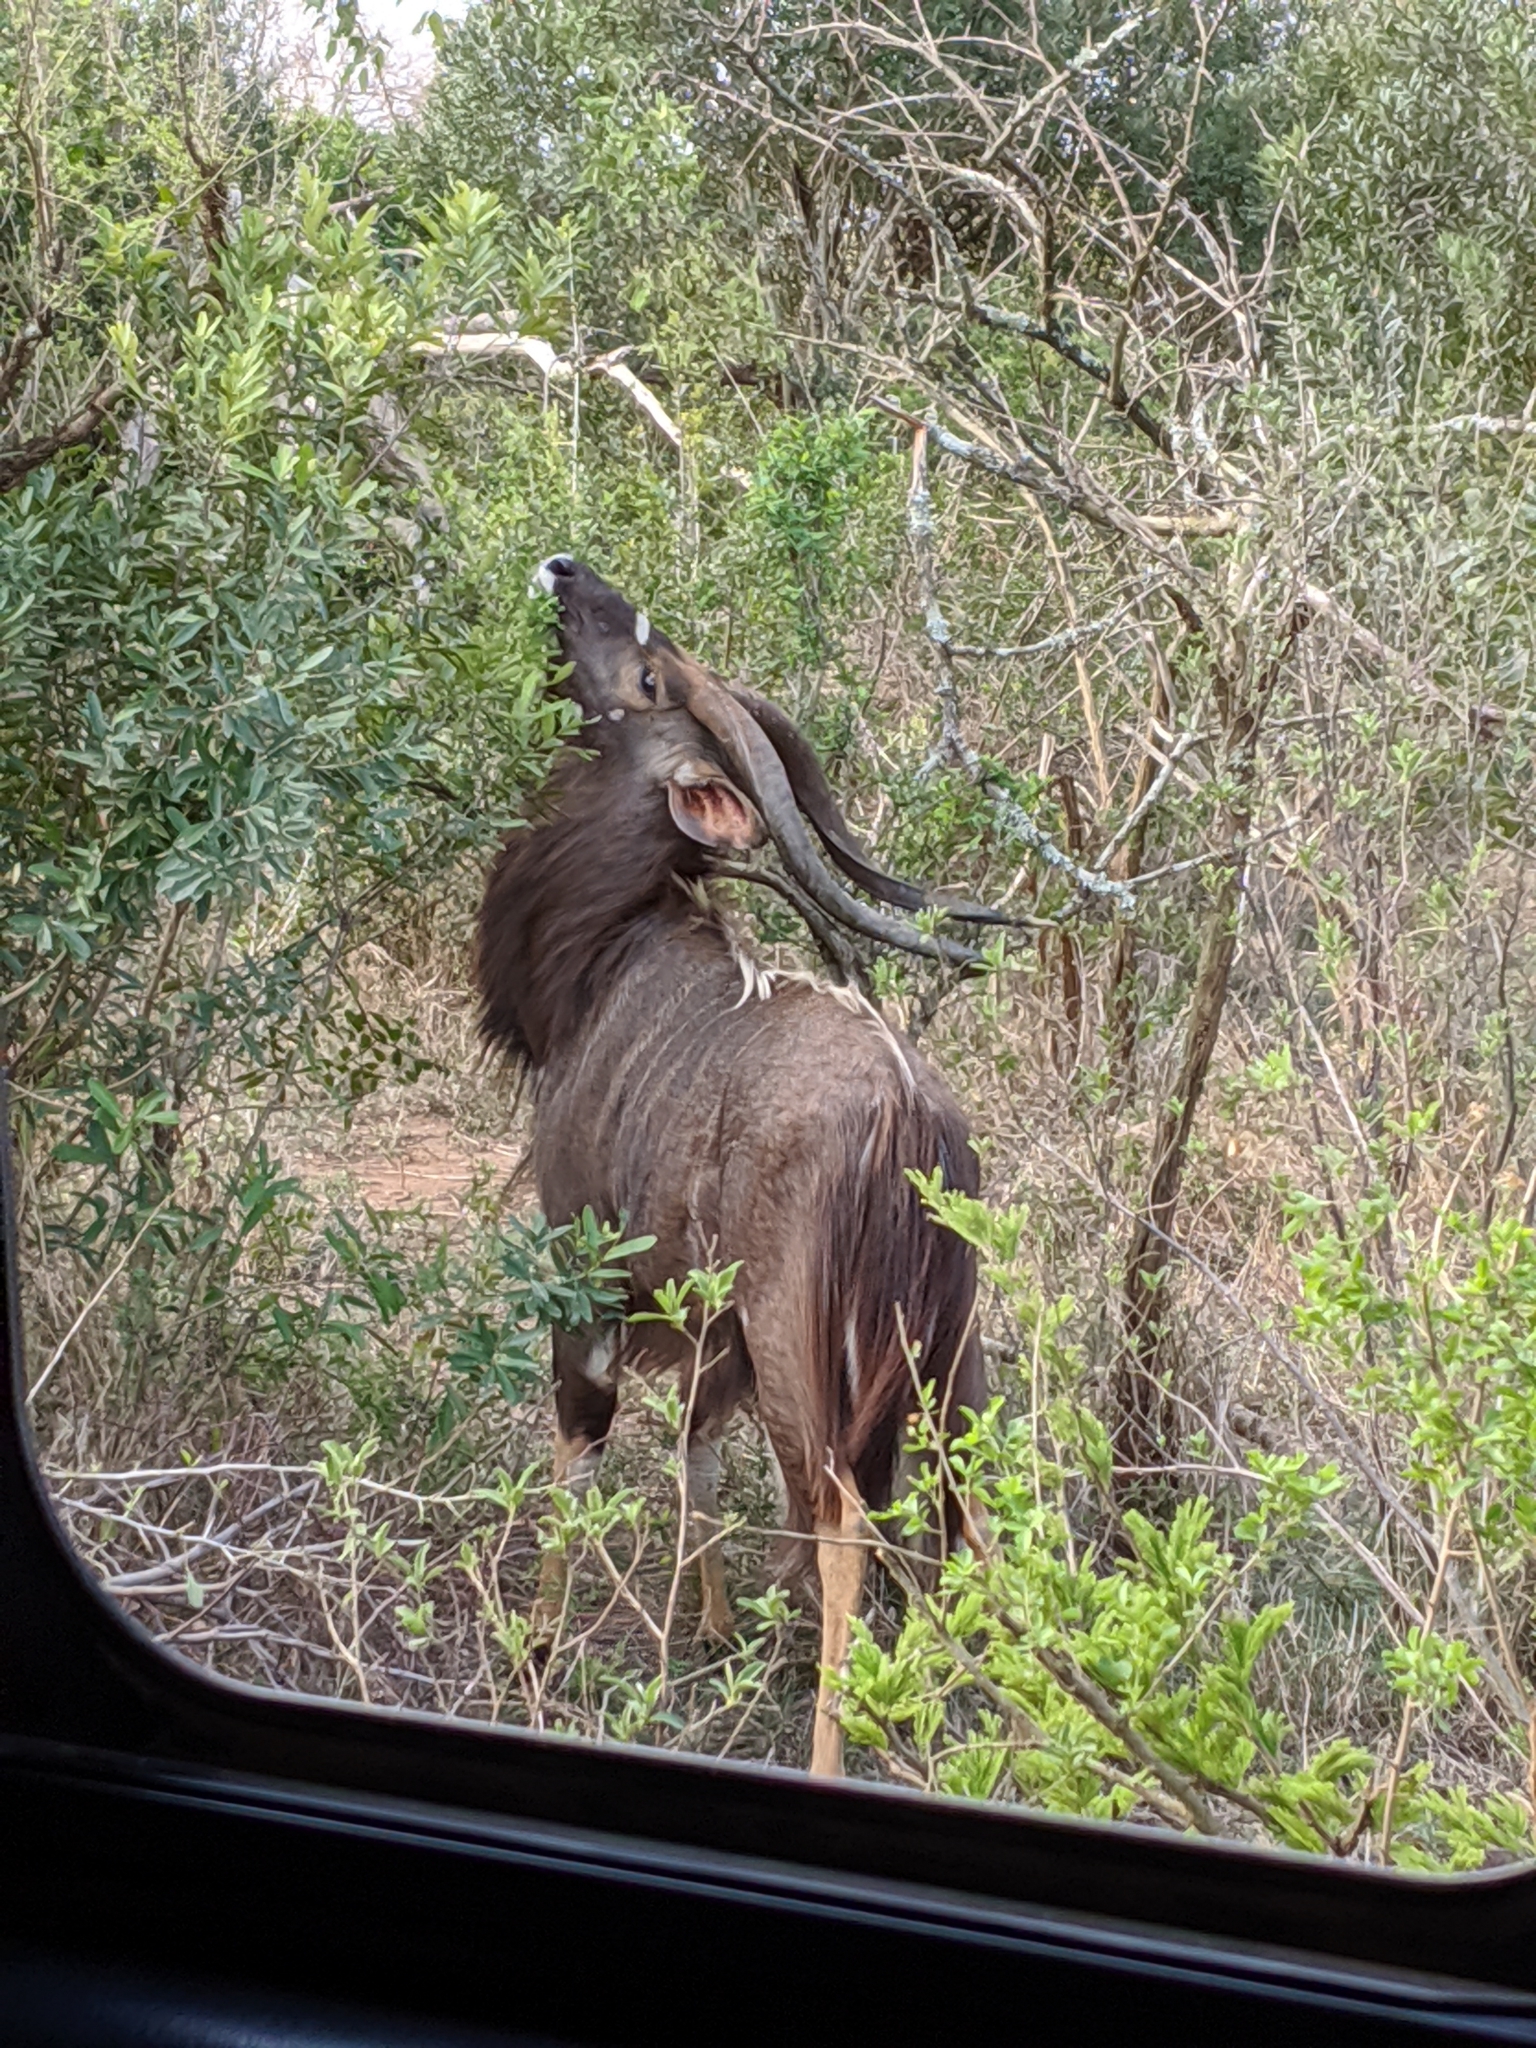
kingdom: Animalia
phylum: Chordata
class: Mammalia
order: Artiodactyla
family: Bovidae
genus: Tragelaphus
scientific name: Tragelaphus angasii
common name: Nyala
